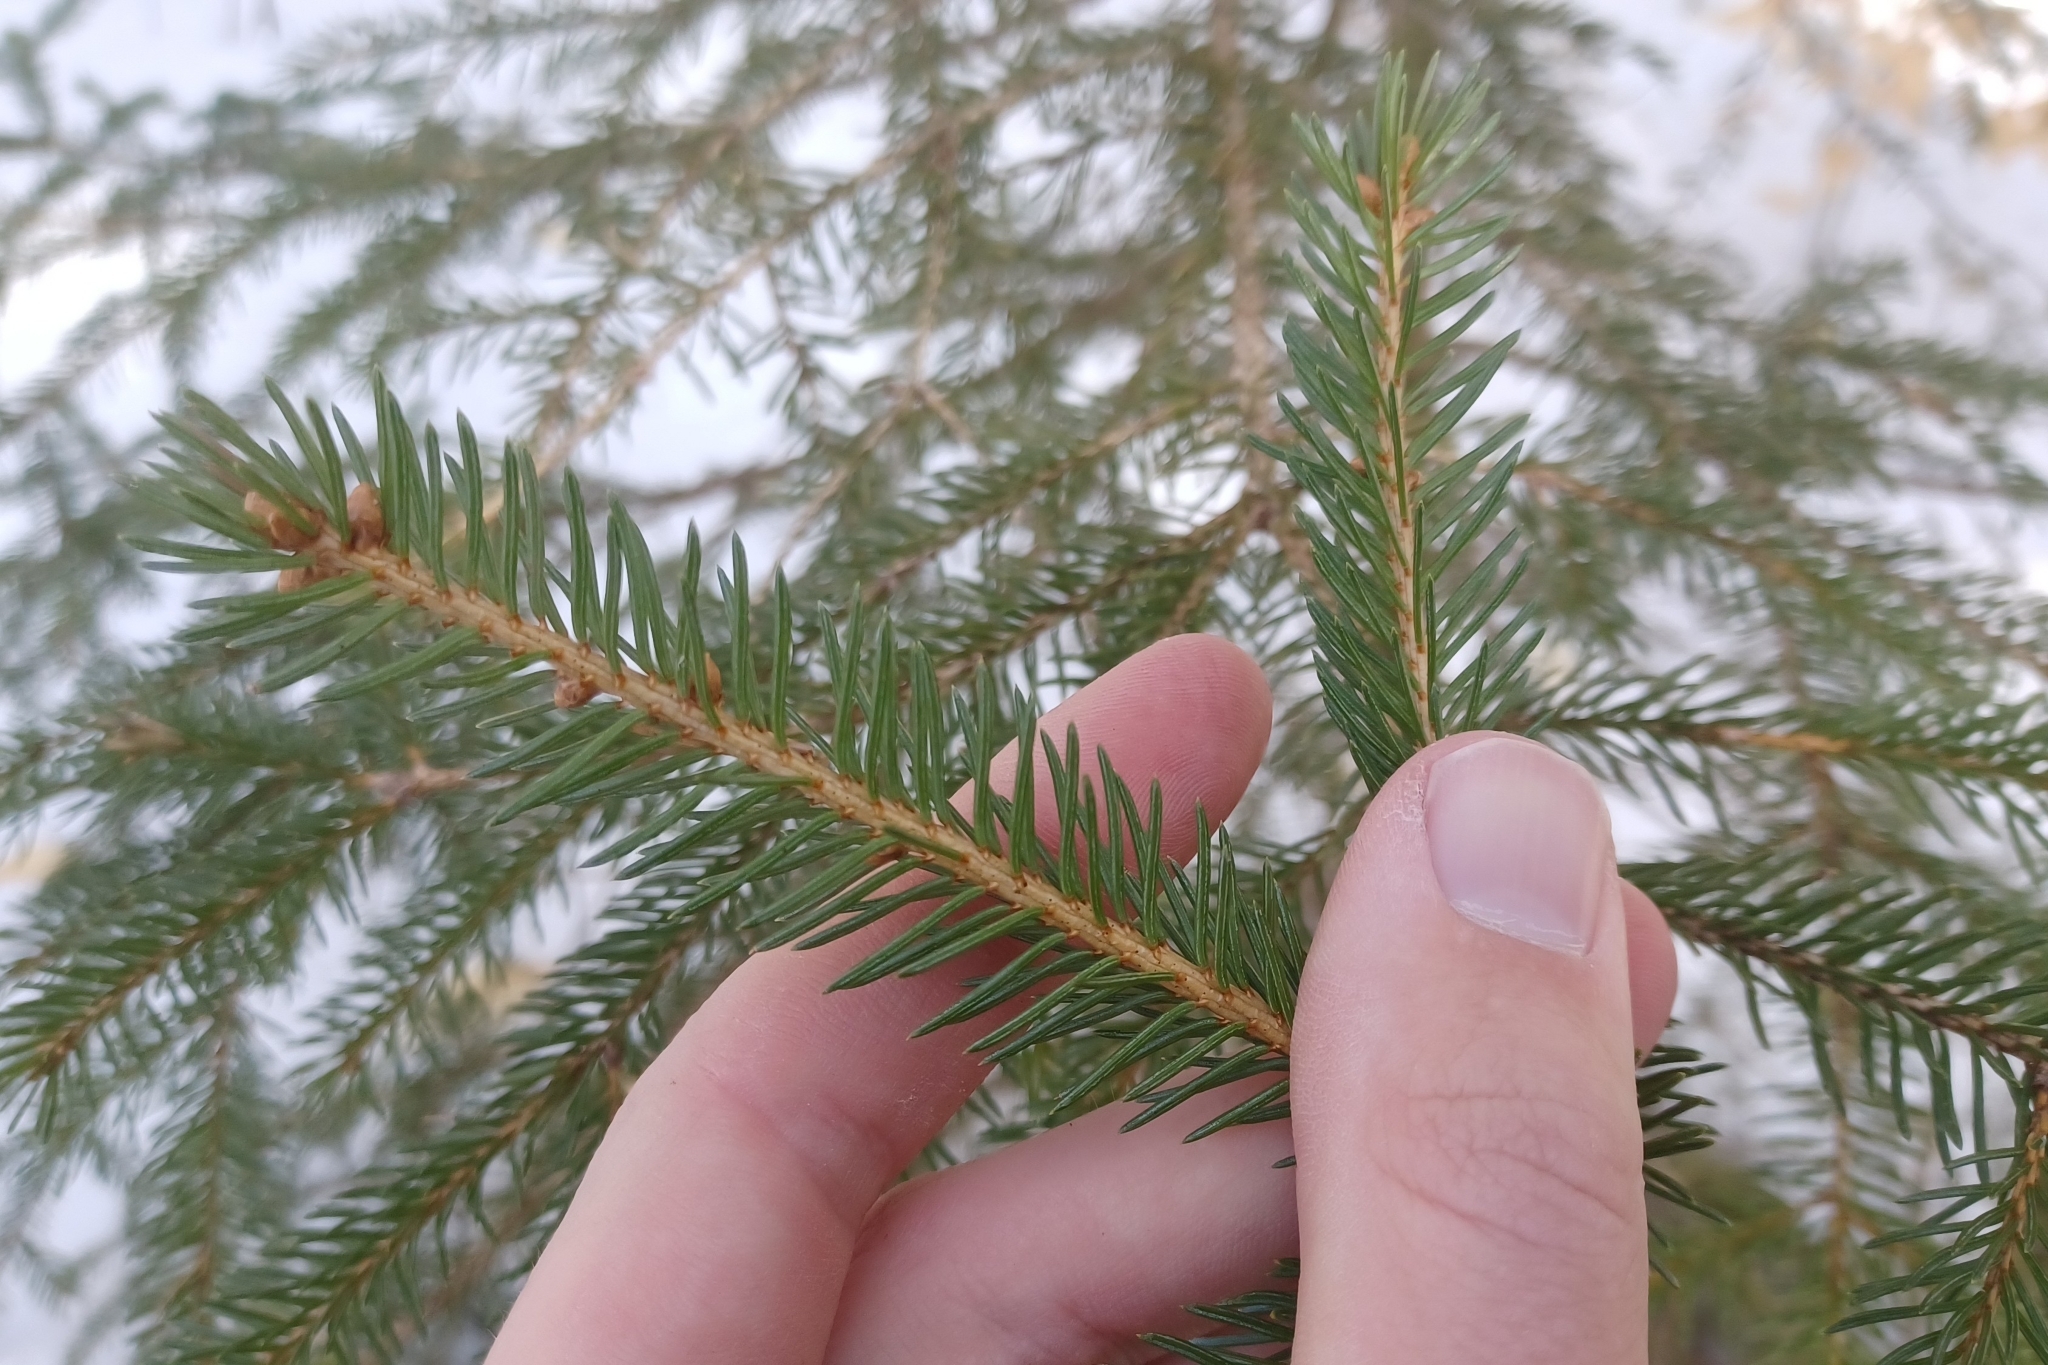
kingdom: Plantae
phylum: Tracheophyta
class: Pinopsida
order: Pinales
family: Pinaceae
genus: Picea
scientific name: Picea glauca
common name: White spruce
